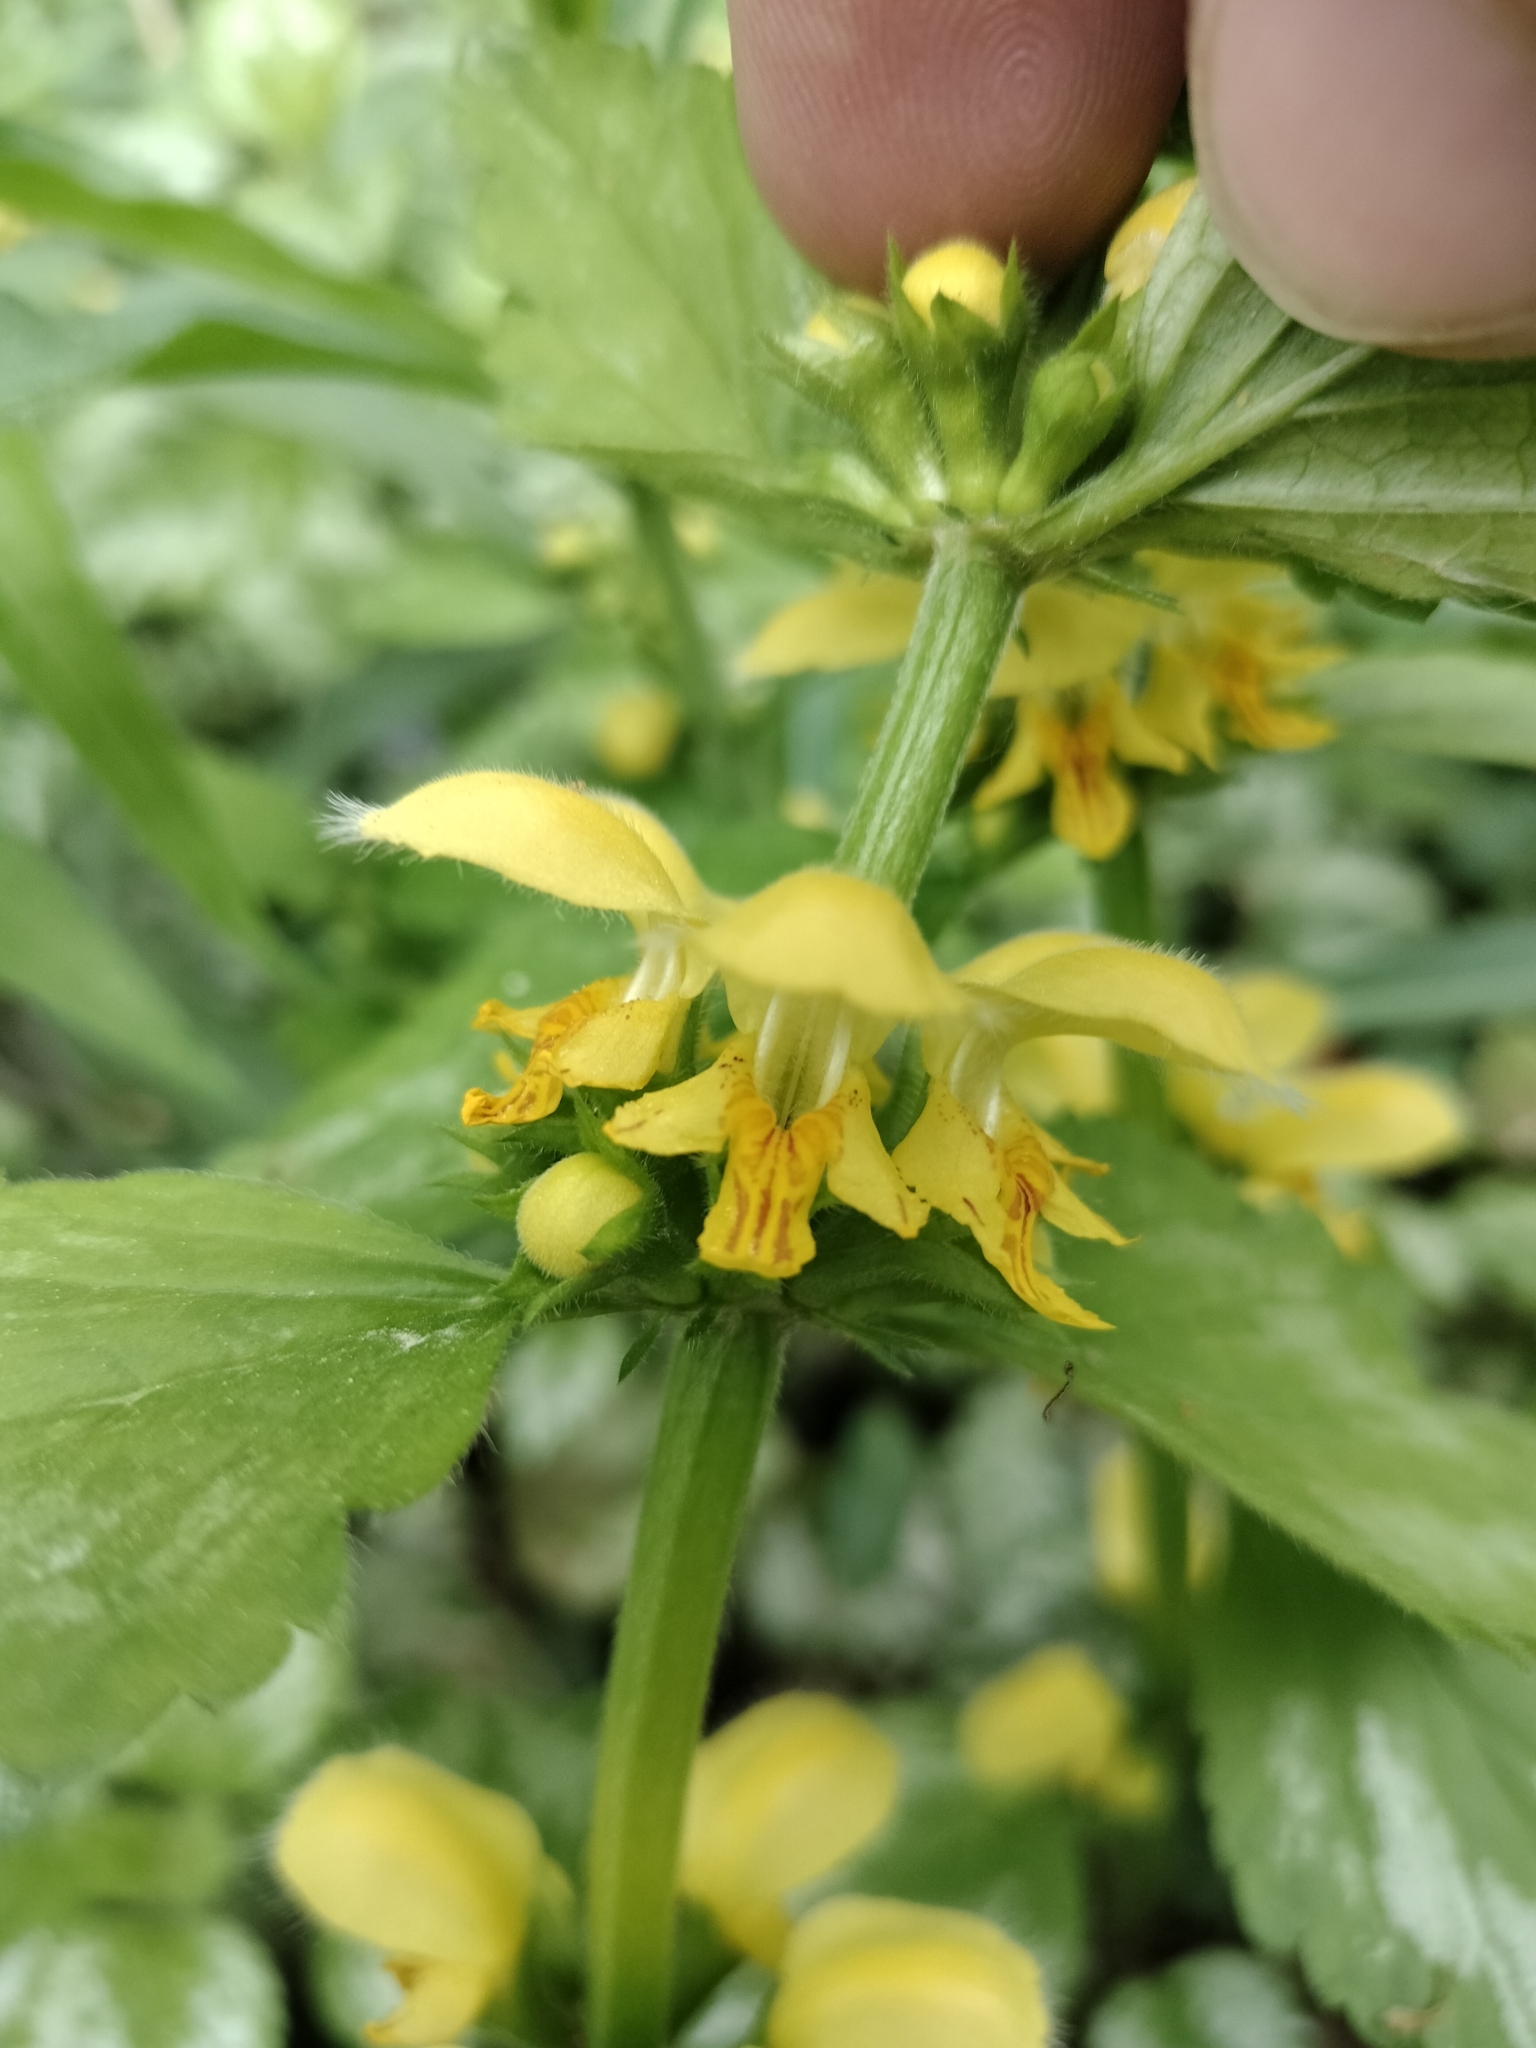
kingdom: Plantae
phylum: Tracheophyta
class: Magnoliopsida
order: Lamiales
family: Lamiaceae
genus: Lamium
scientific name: Lamium galeobdolon
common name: Yellow archangel
